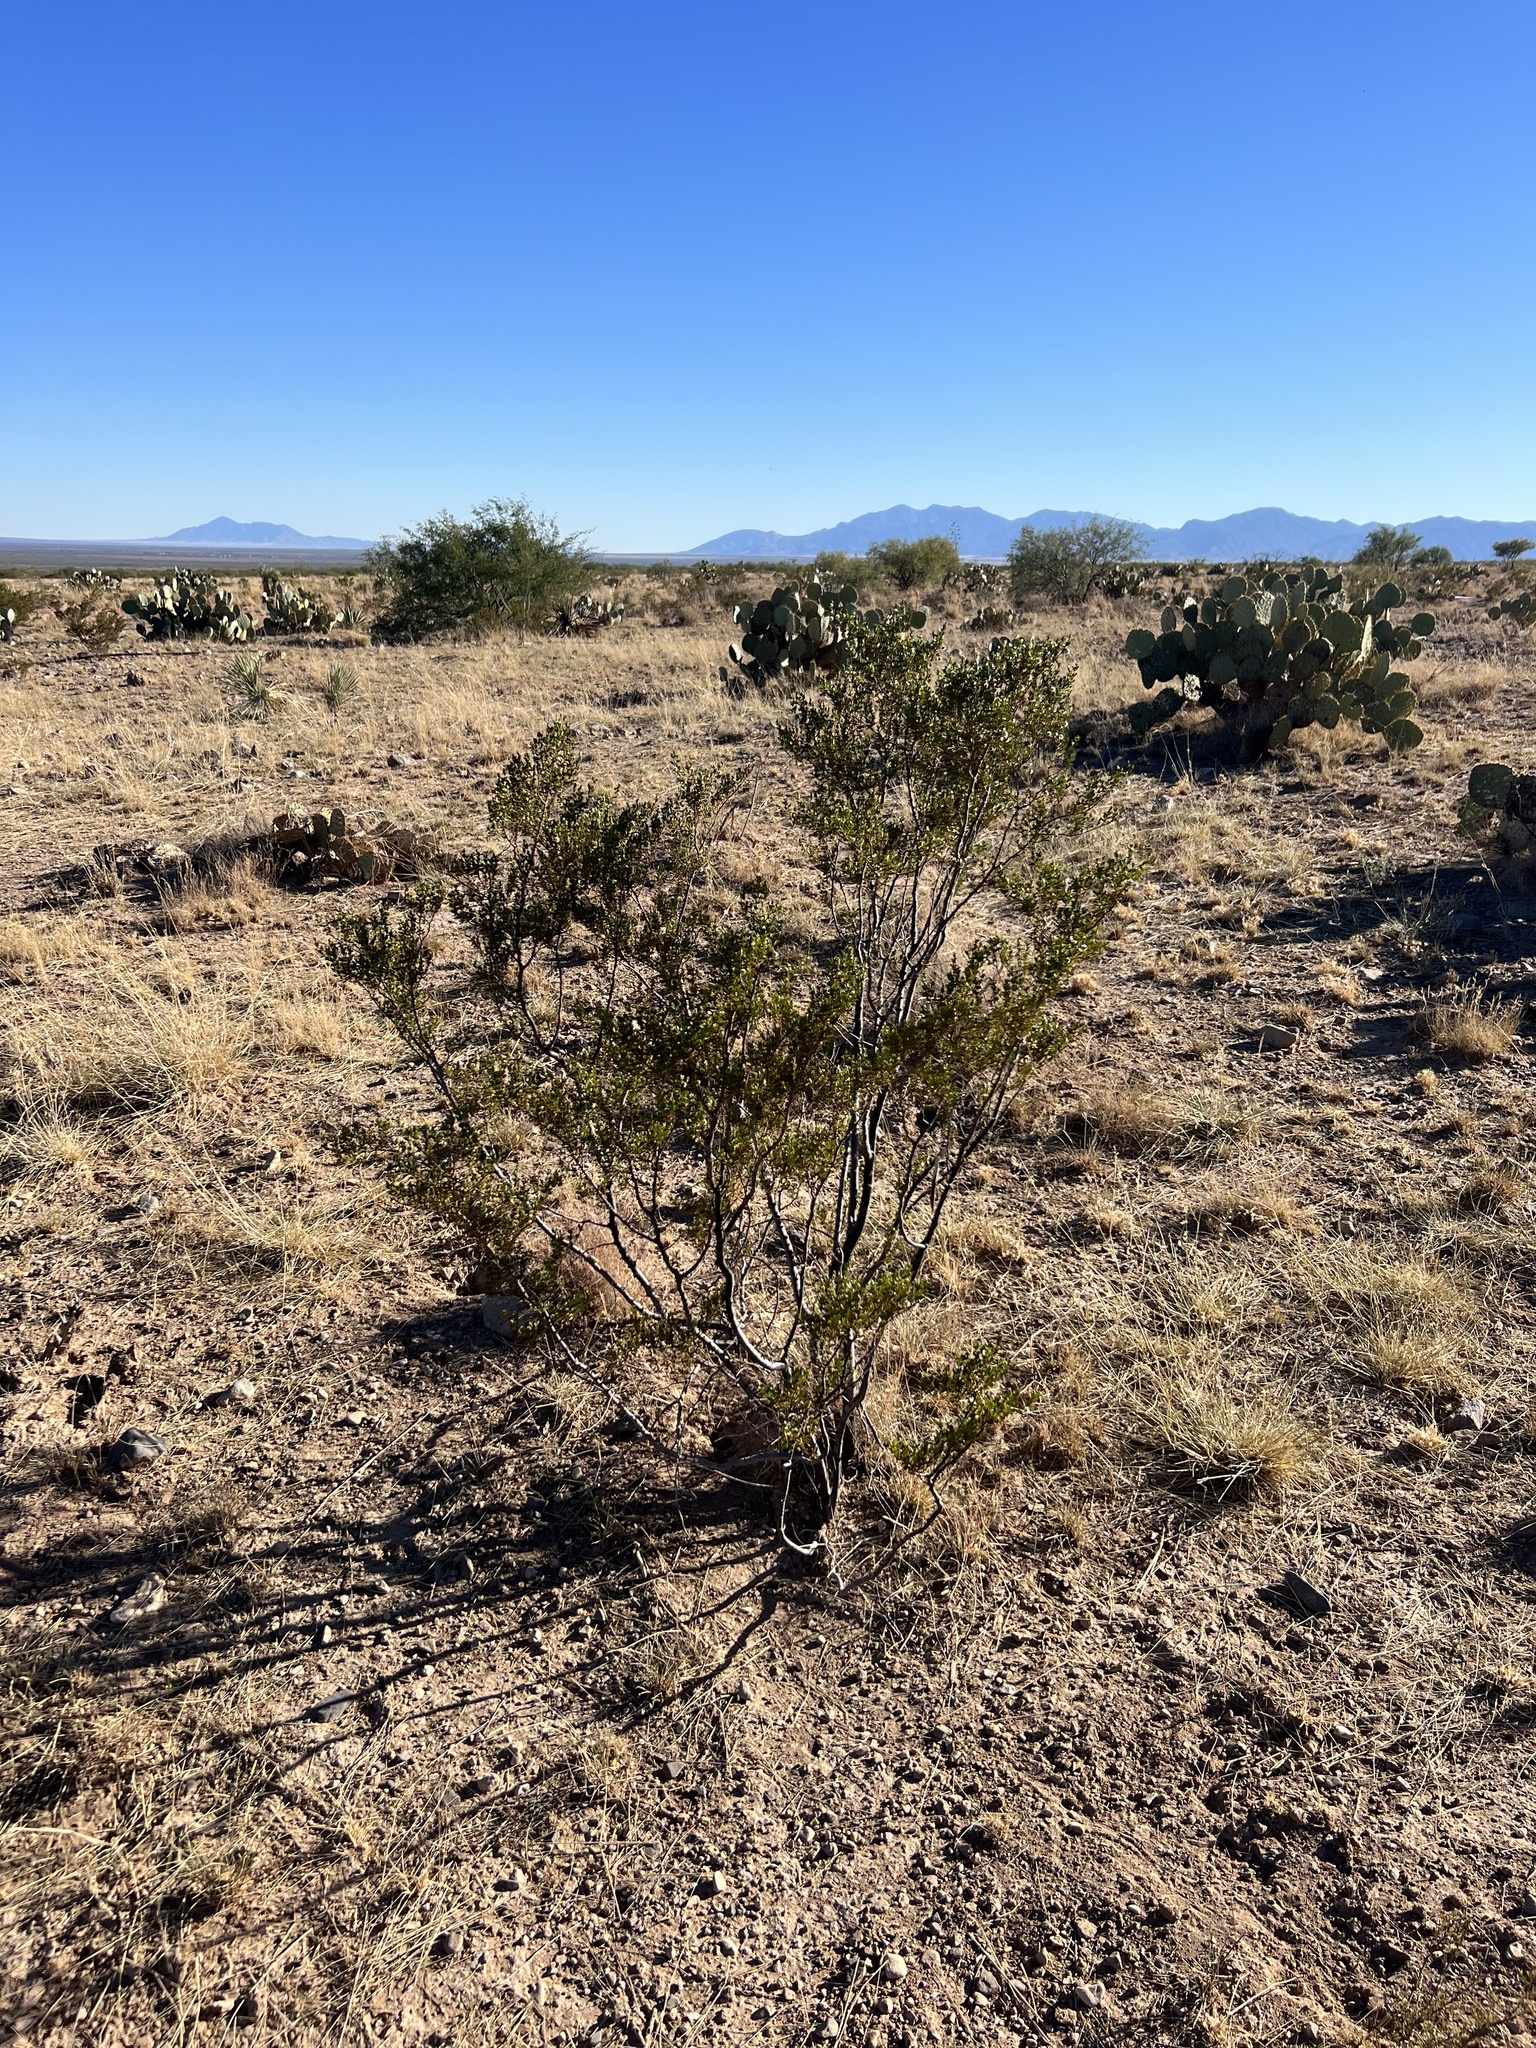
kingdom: Plantae
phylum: Tracheophyta
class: Magnoliopsida
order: Zygophyllales
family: Zygophyllaceae
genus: Larrea
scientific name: Larrea tridentata
